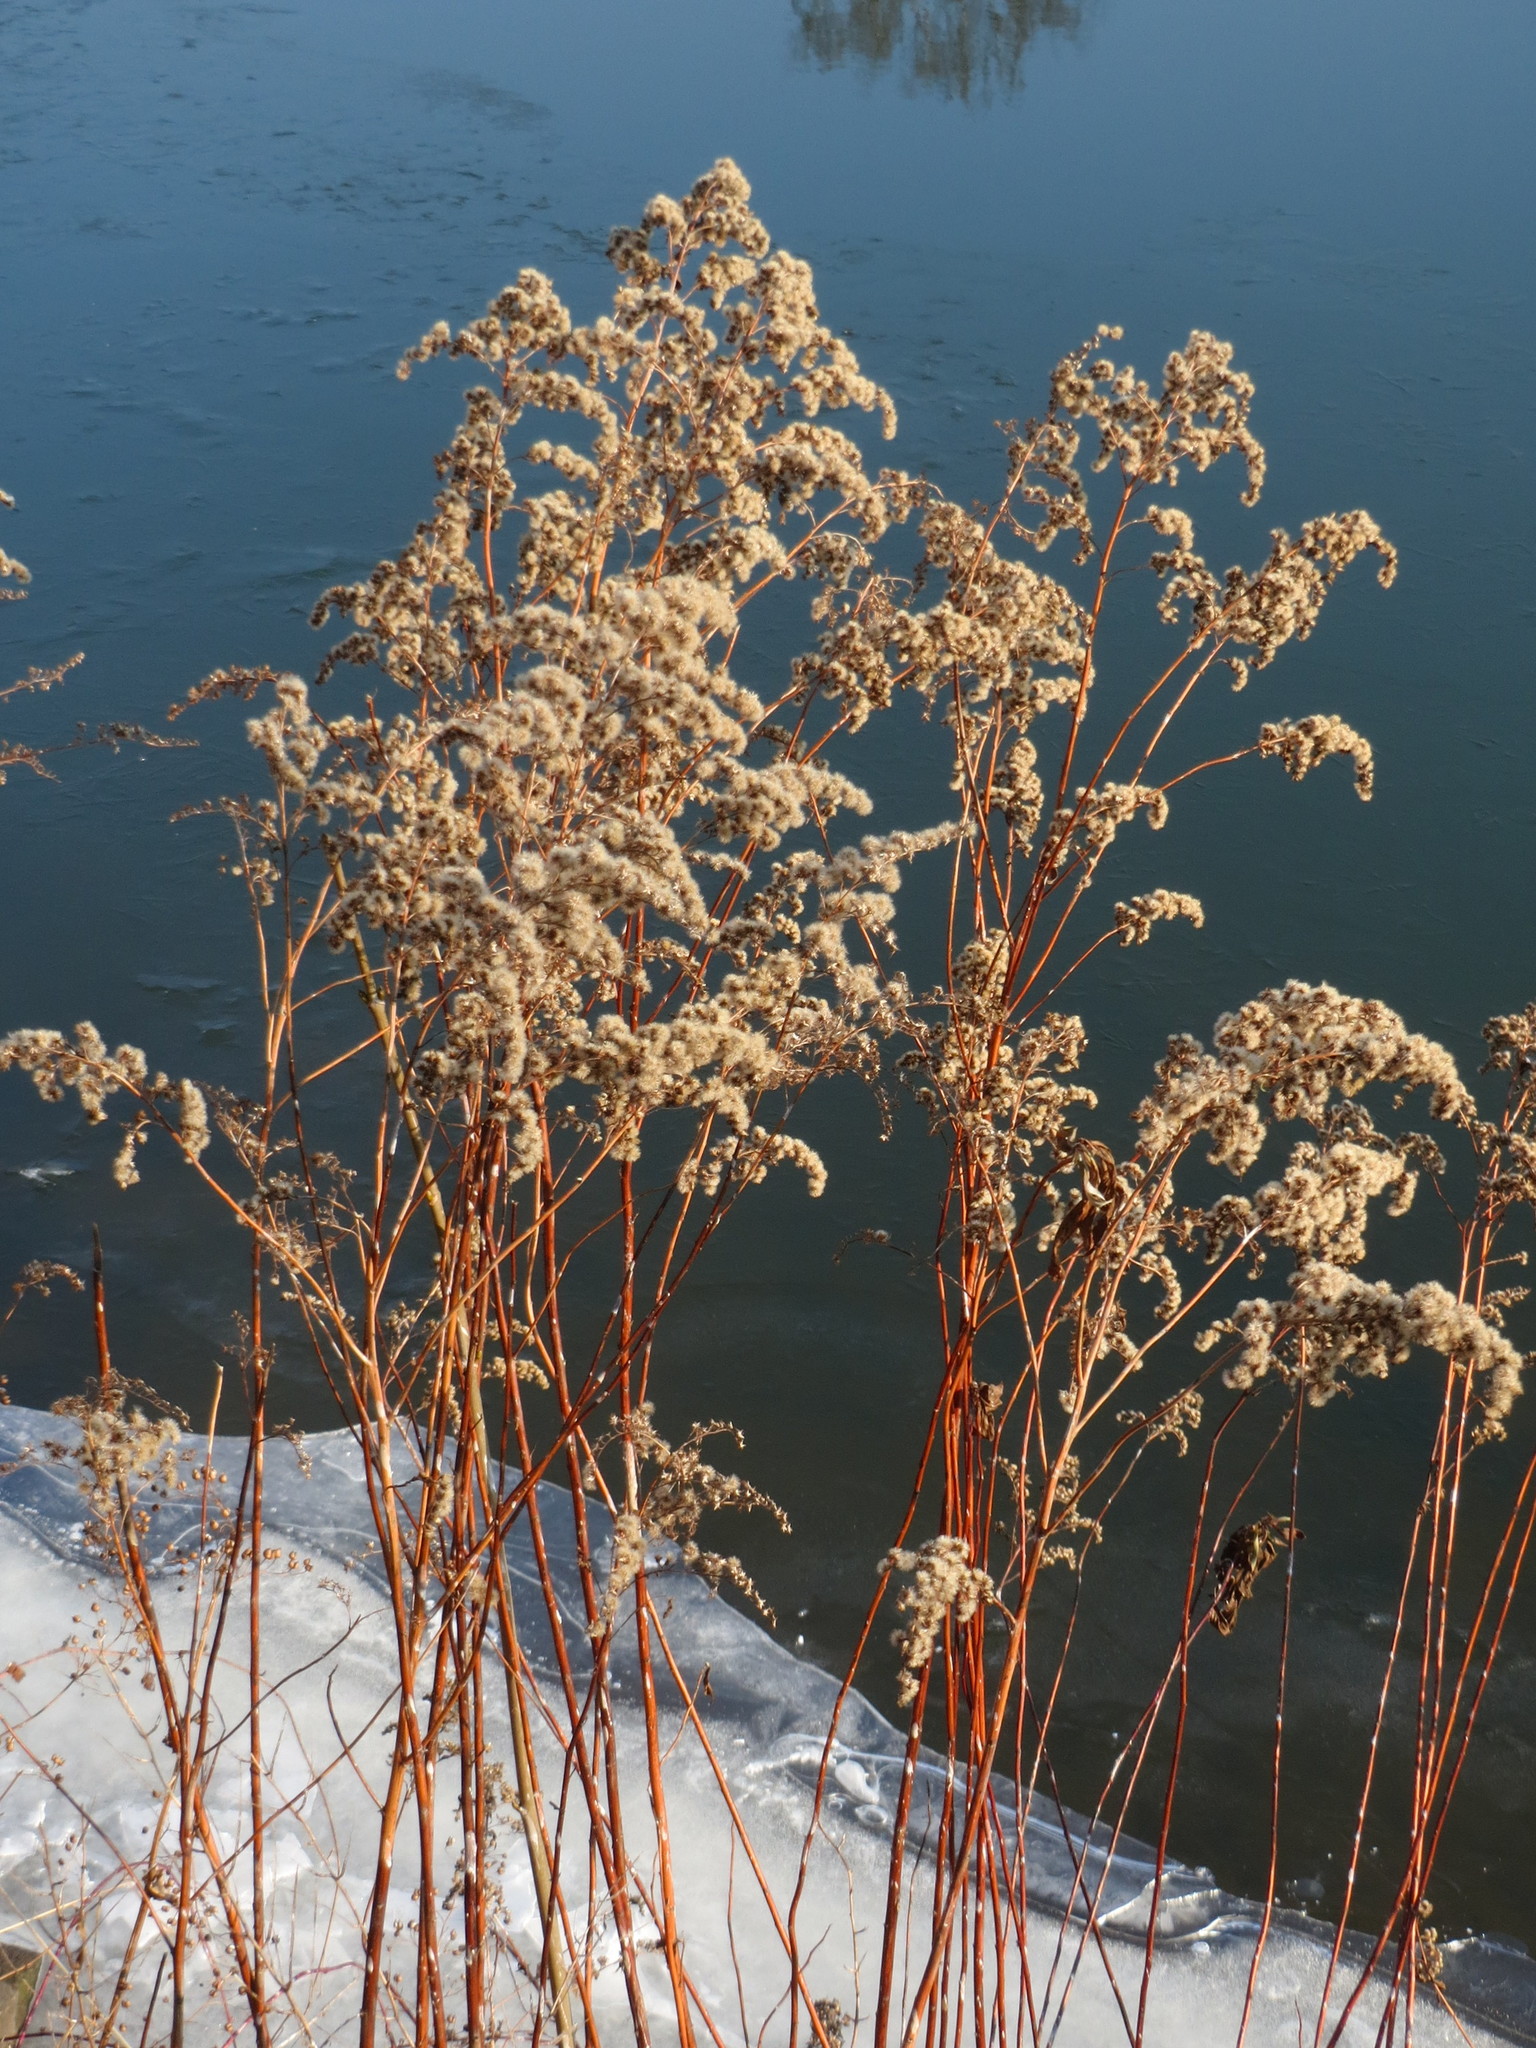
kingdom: Plantae
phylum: Tracheophyta
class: Magnoliopsida
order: Asterales
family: Asteraceae
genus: Solidago
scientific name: Solidago canadensis
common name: Canada goldenrod
